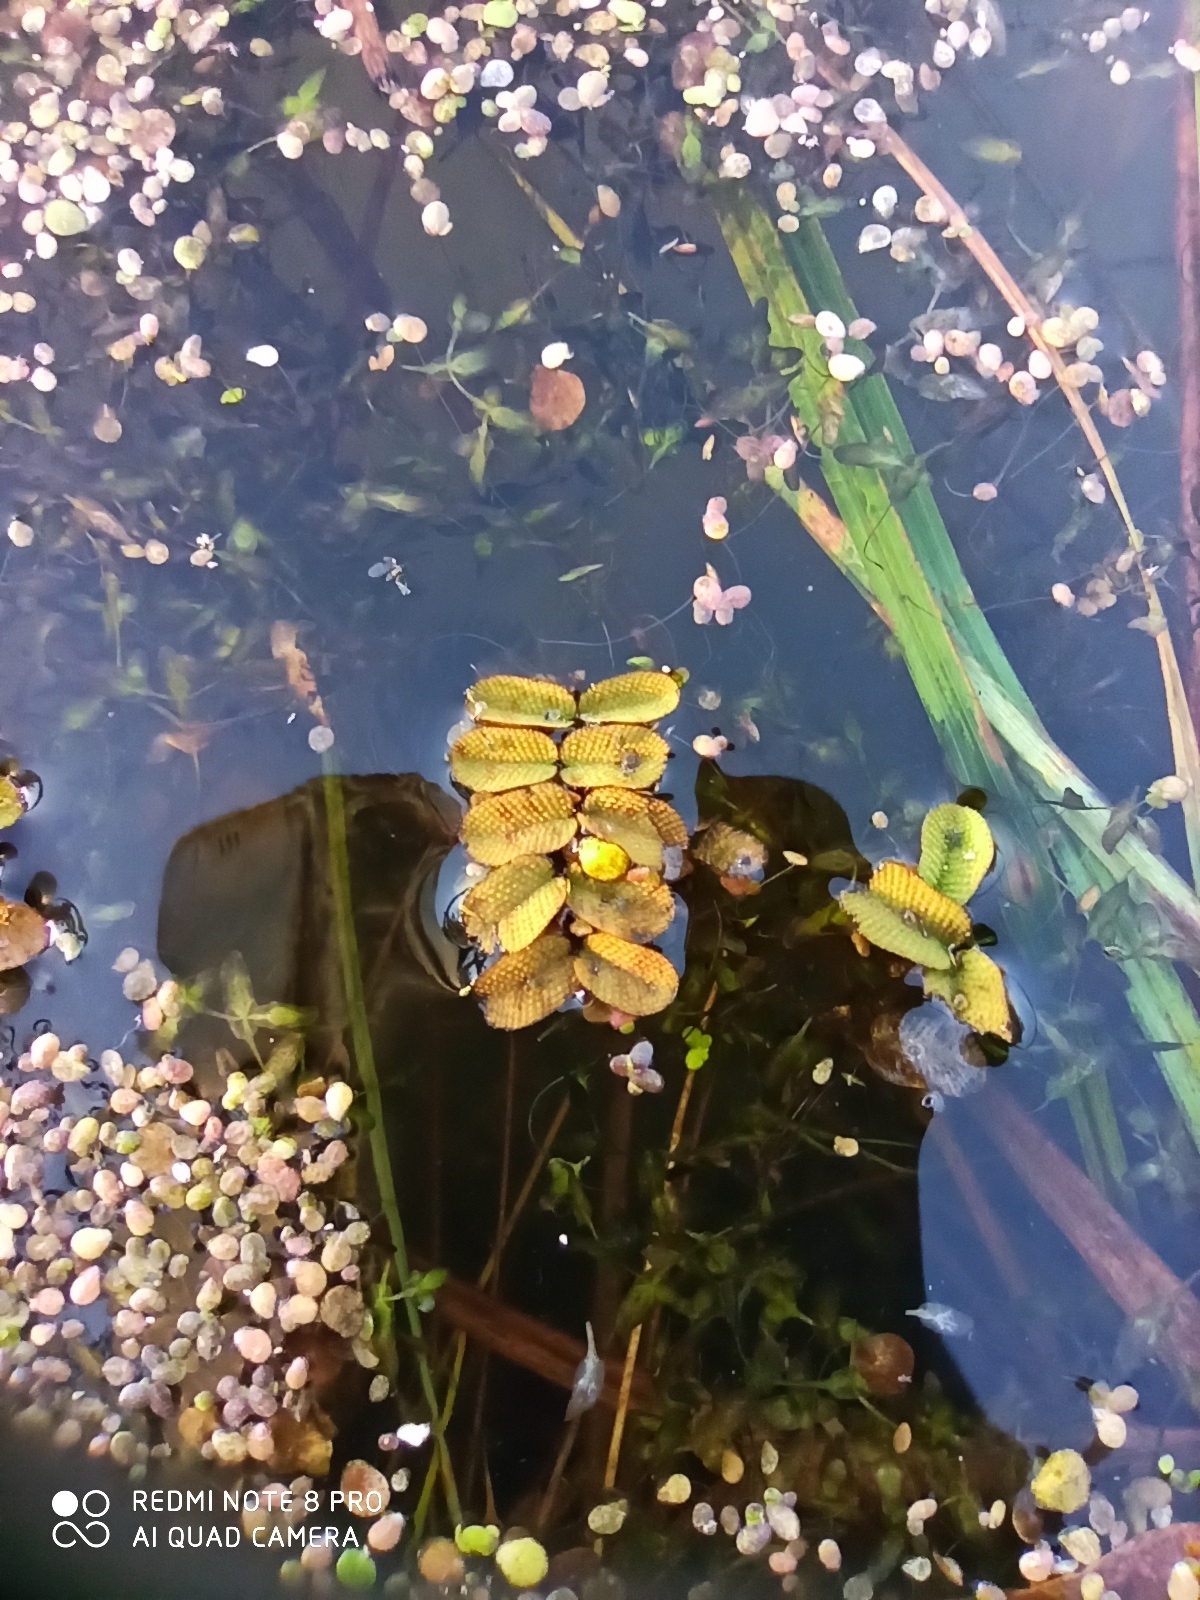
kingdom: Plantae
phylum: Tracheophyta
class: Polypodiopsida
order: Salviniales
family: Salviniaceae
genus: Salvinia
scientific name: Salvinia natans
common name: Floating fern
